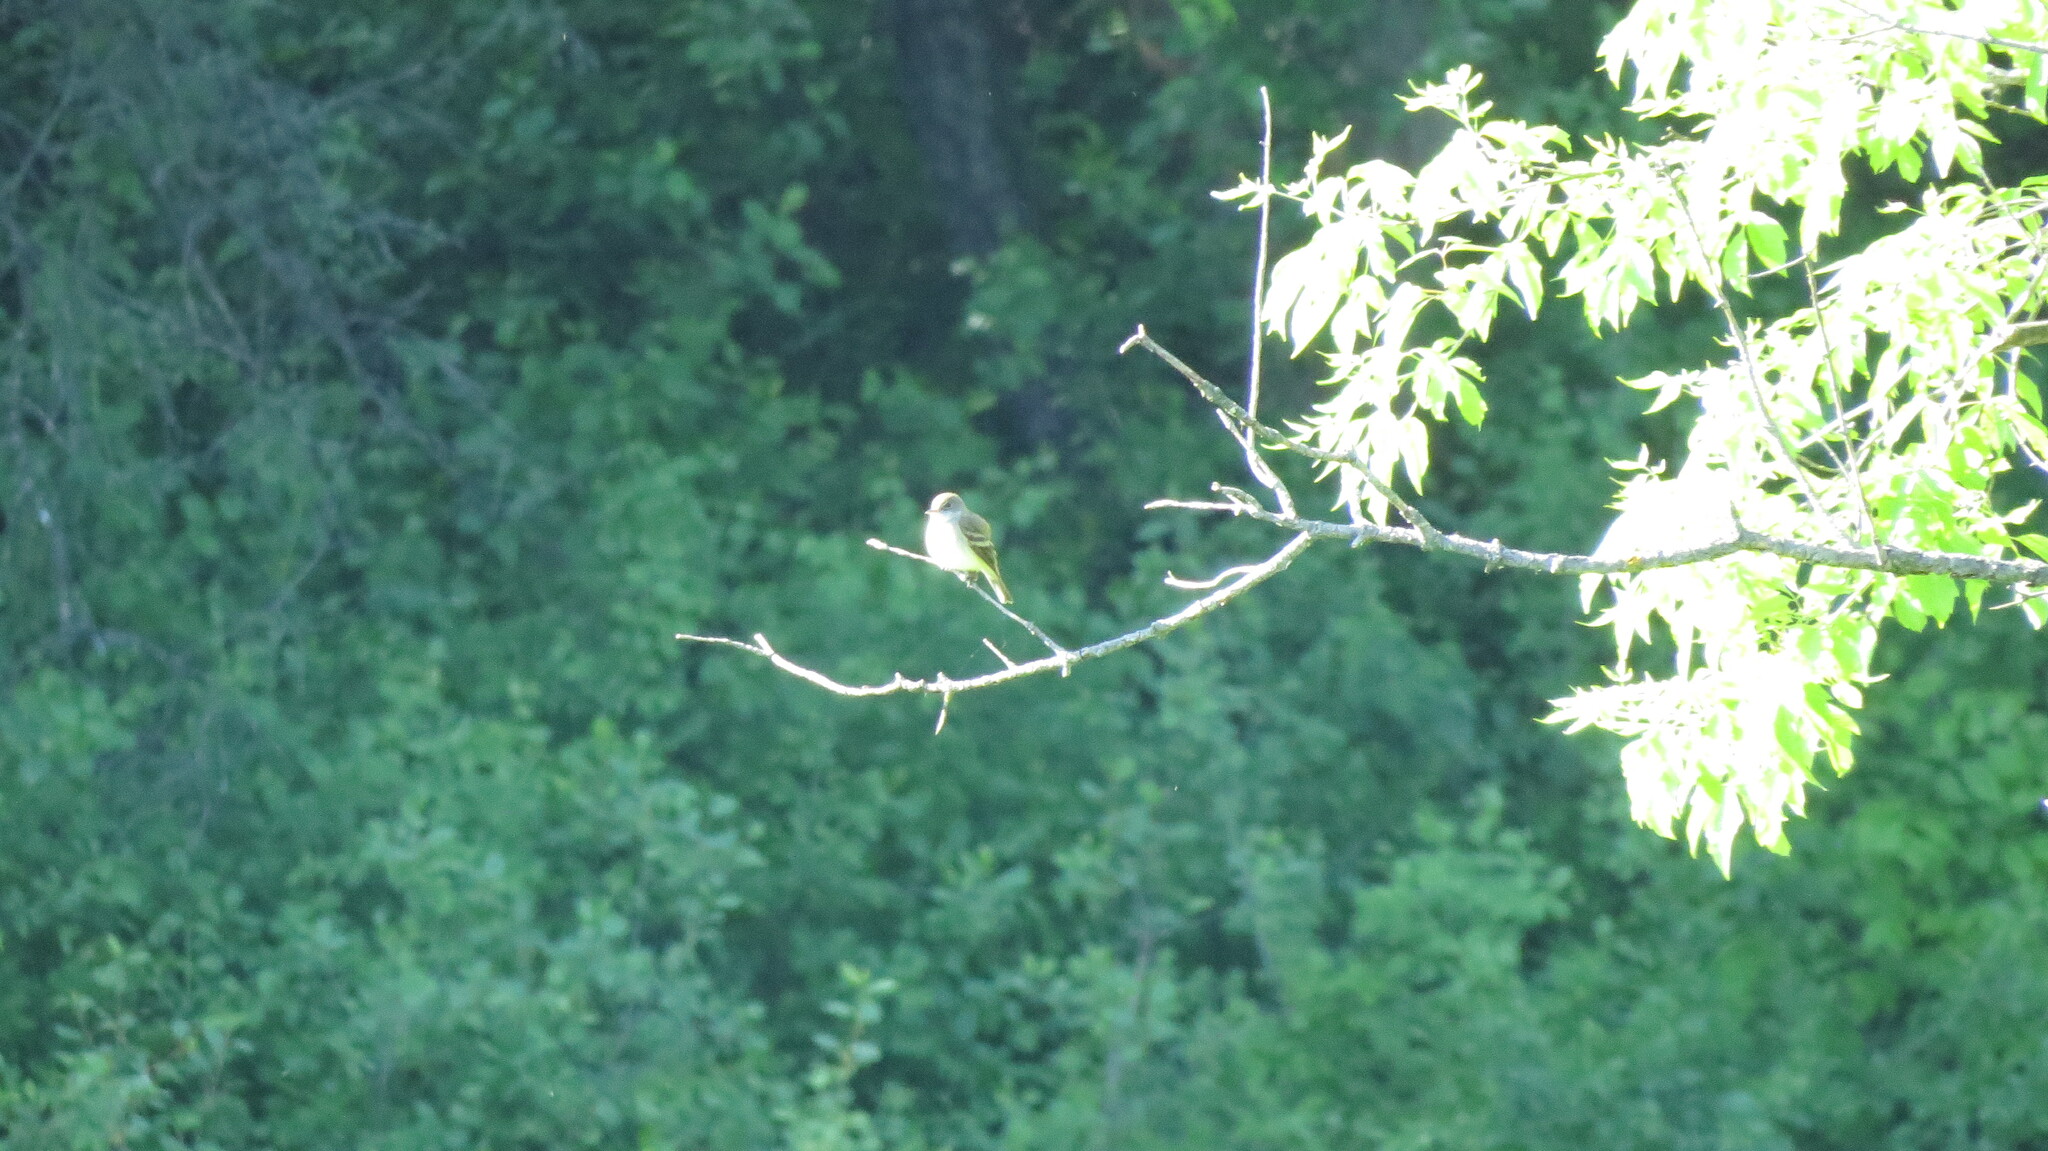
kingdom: Animalia
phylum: Chordata
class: Aves
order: Passeriformes
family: Tyrannidae
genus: Empidonax
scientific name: Empidonax traillii
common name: Willow flycatcher
